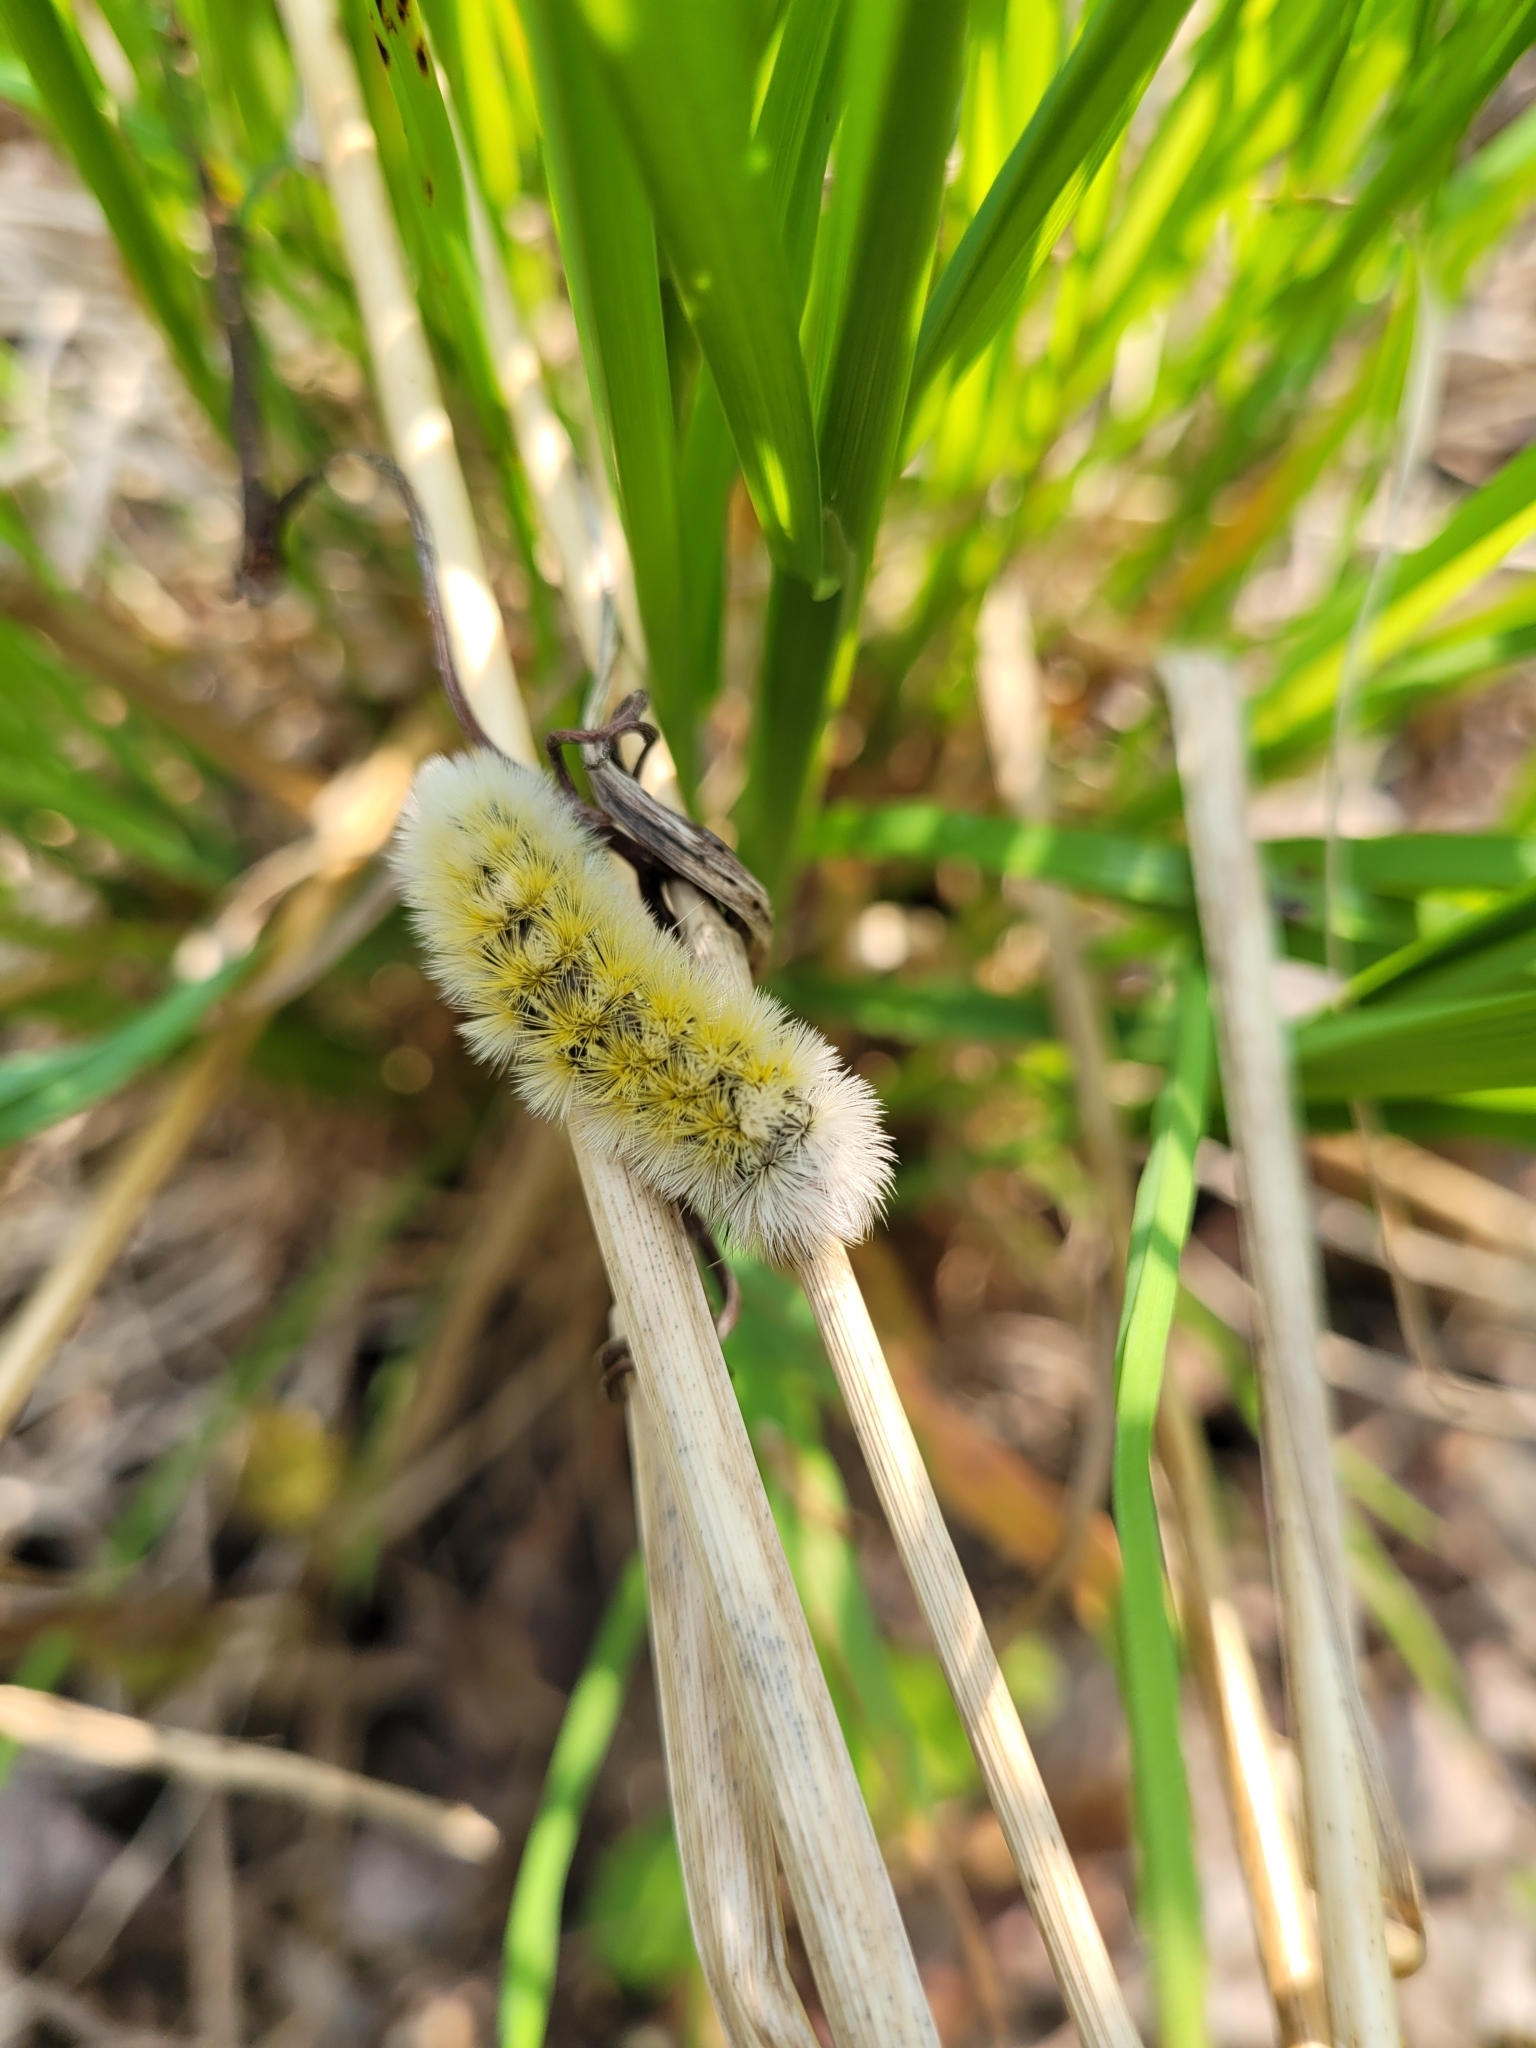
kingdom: Animalia
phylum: Arthropoda
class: Insecta
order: Lepidoptera
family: Erebidae
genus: Ctenucha
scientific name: Ctenucha virginica
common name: Virginia ctenucha moth
